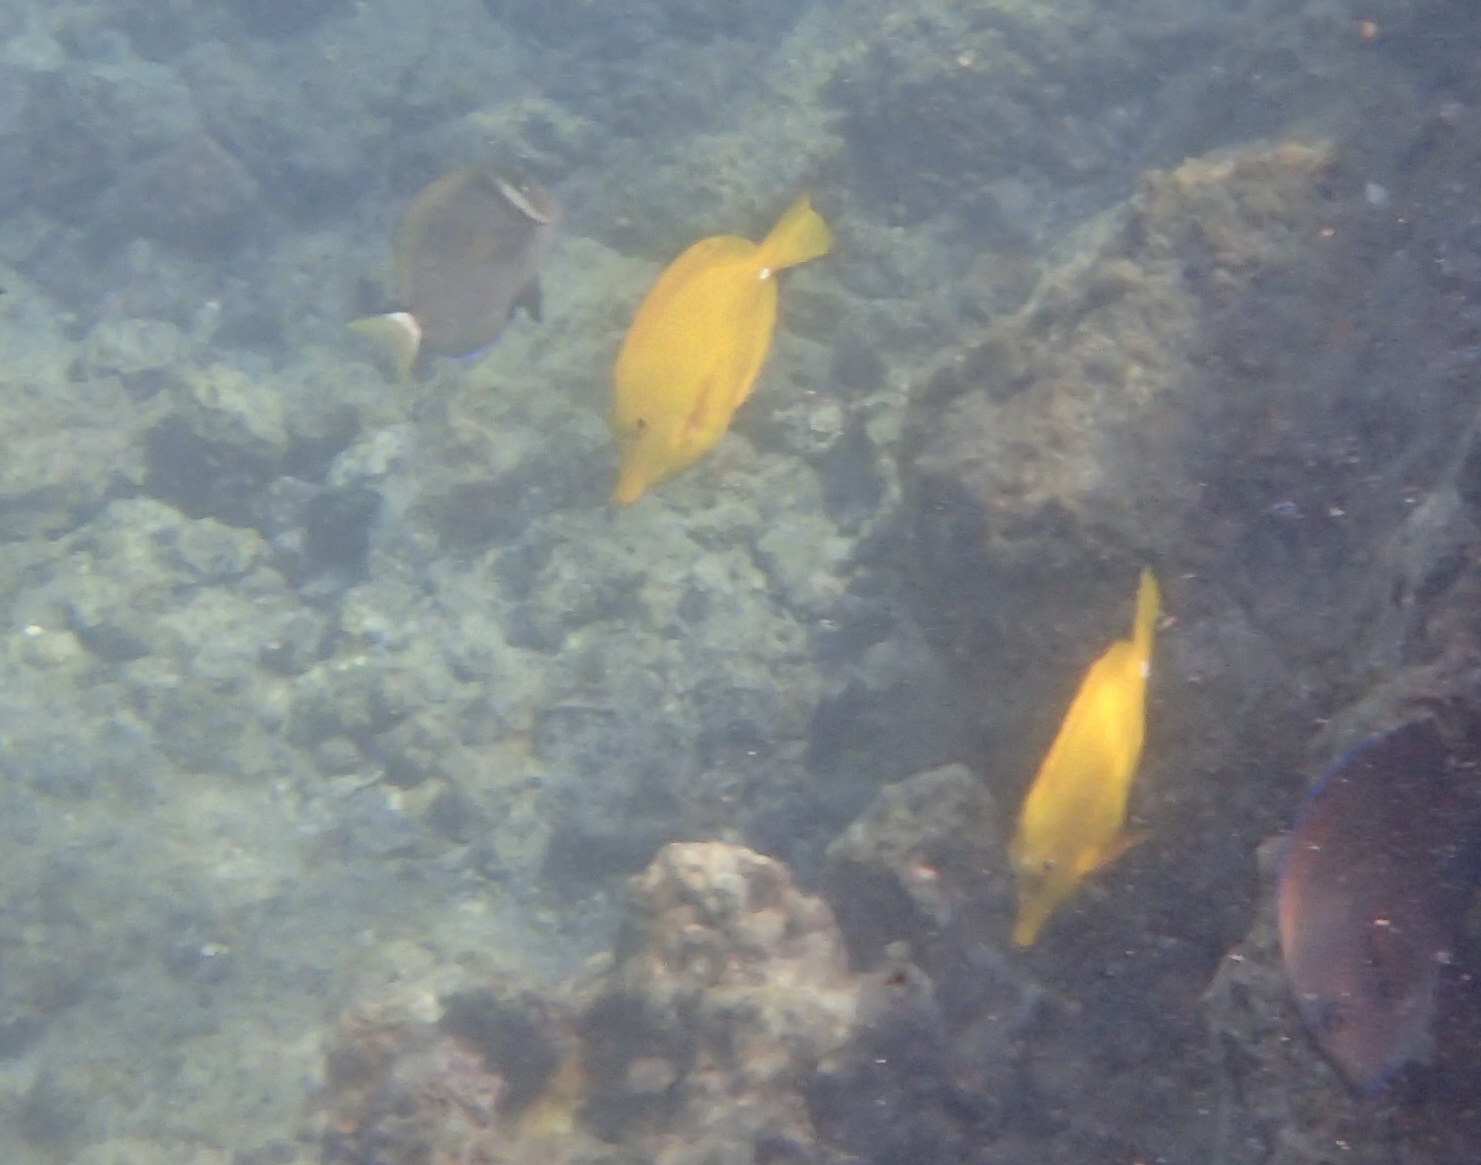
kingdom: Animalia
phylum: Chordata
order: Perciformes
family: Acanthuridae
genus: Zebrasoma
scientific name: Zebrasoma flavescens
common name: Yellow tang
